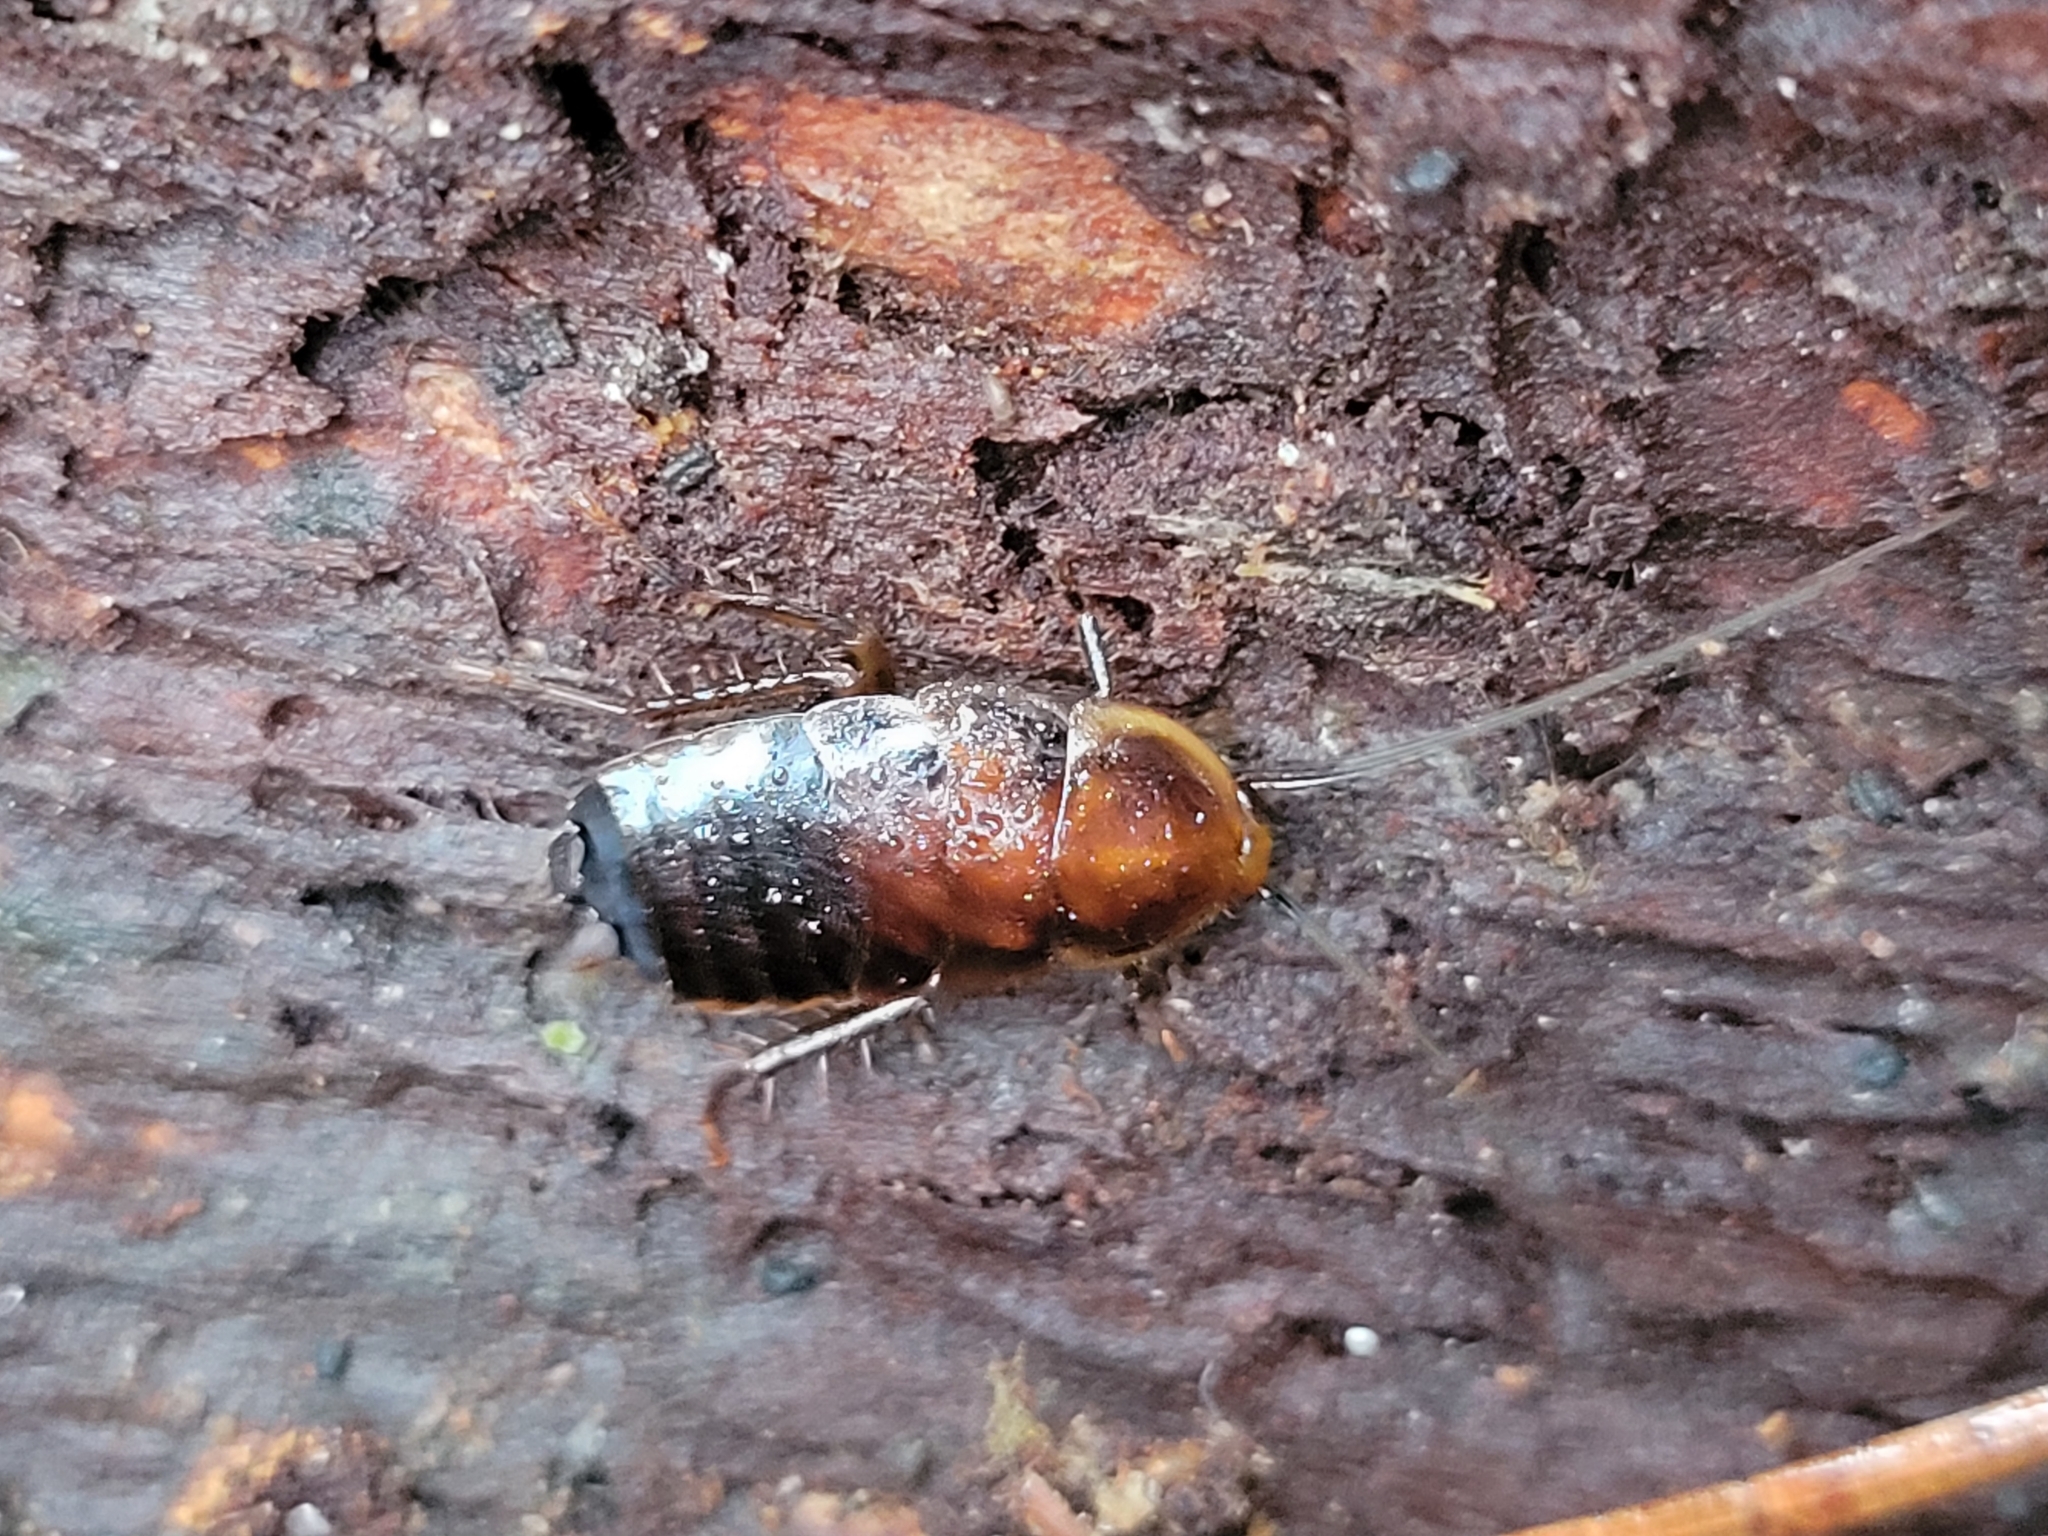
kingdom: Animalia
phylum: Arthropoda
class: Insecta
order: Blattodea
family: Ectobiidae
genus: Parcoblatta
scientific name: Parcoblatta pennsylvanica
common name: Pennsylvanian wood cockroach
